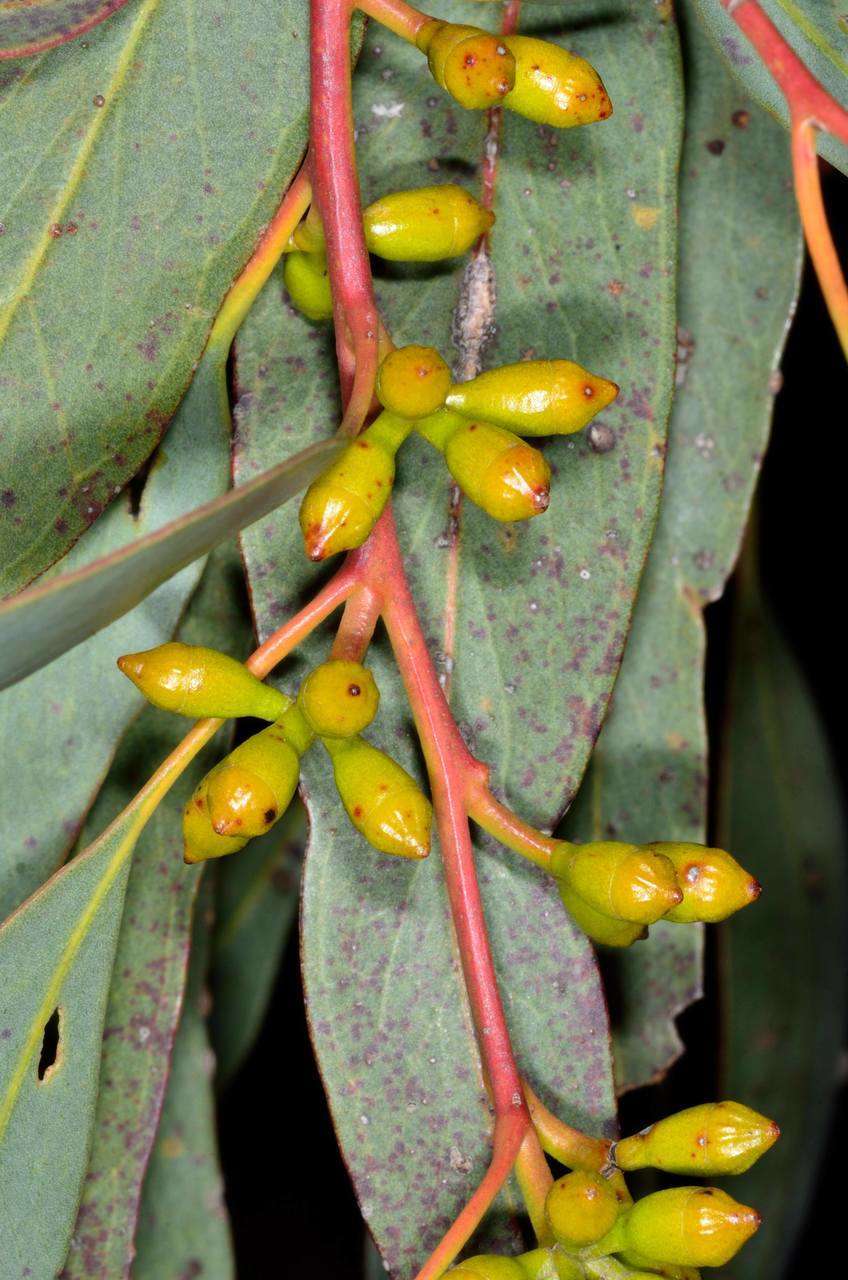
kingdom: Plantae
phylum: Tracheophyta
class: Magnoliopsida
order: Myrtales
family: Myrtaceae
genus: Eucalyptus
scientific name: Eucalyptus dumosa
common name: Dumosa mallee
